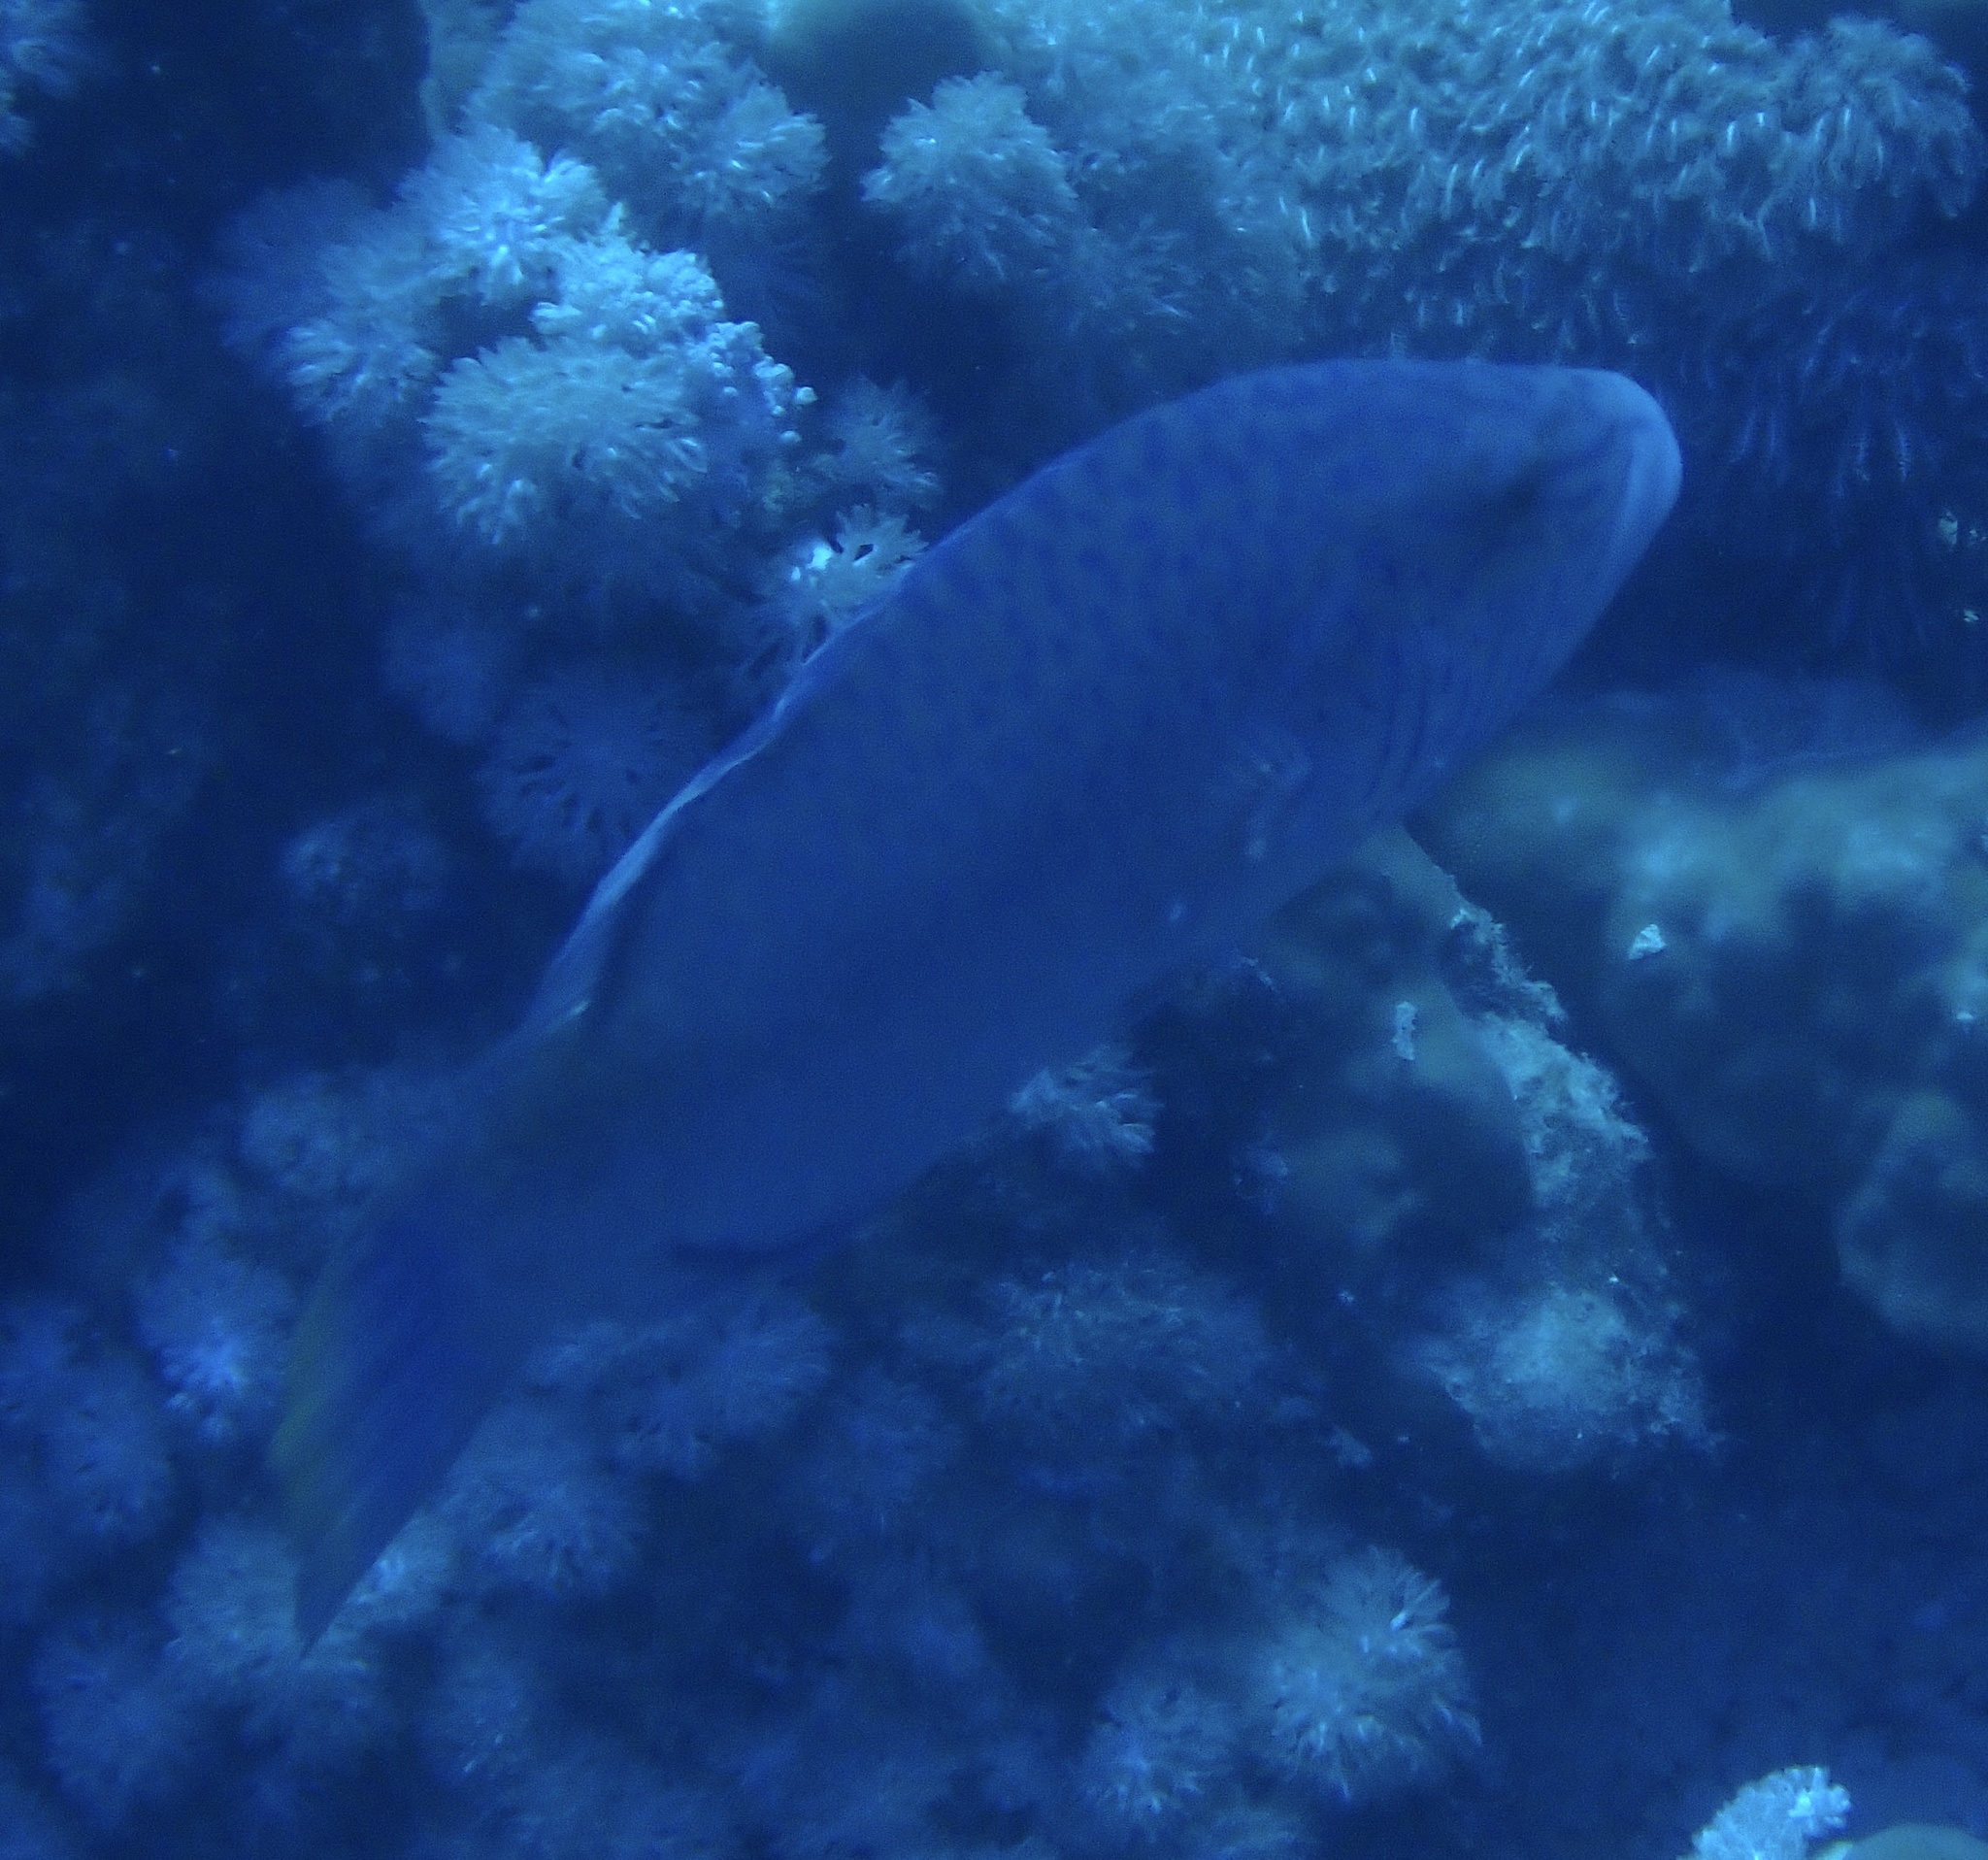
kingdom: Animalia
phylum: Chordata
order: Perciformes
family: Labridae
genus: Oxycheilinus
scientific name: Oxycheilinus digramma
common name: Bandcheek wrasse
